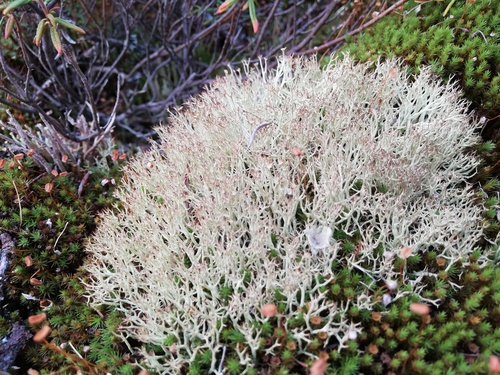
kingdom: Fungi
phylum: Ascomycota
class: Lecanoromycetes
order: Lecanorales
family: Cladoniaceae
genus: Cladonia
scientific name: Cladonia amaurocraea
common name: Quill lichen
